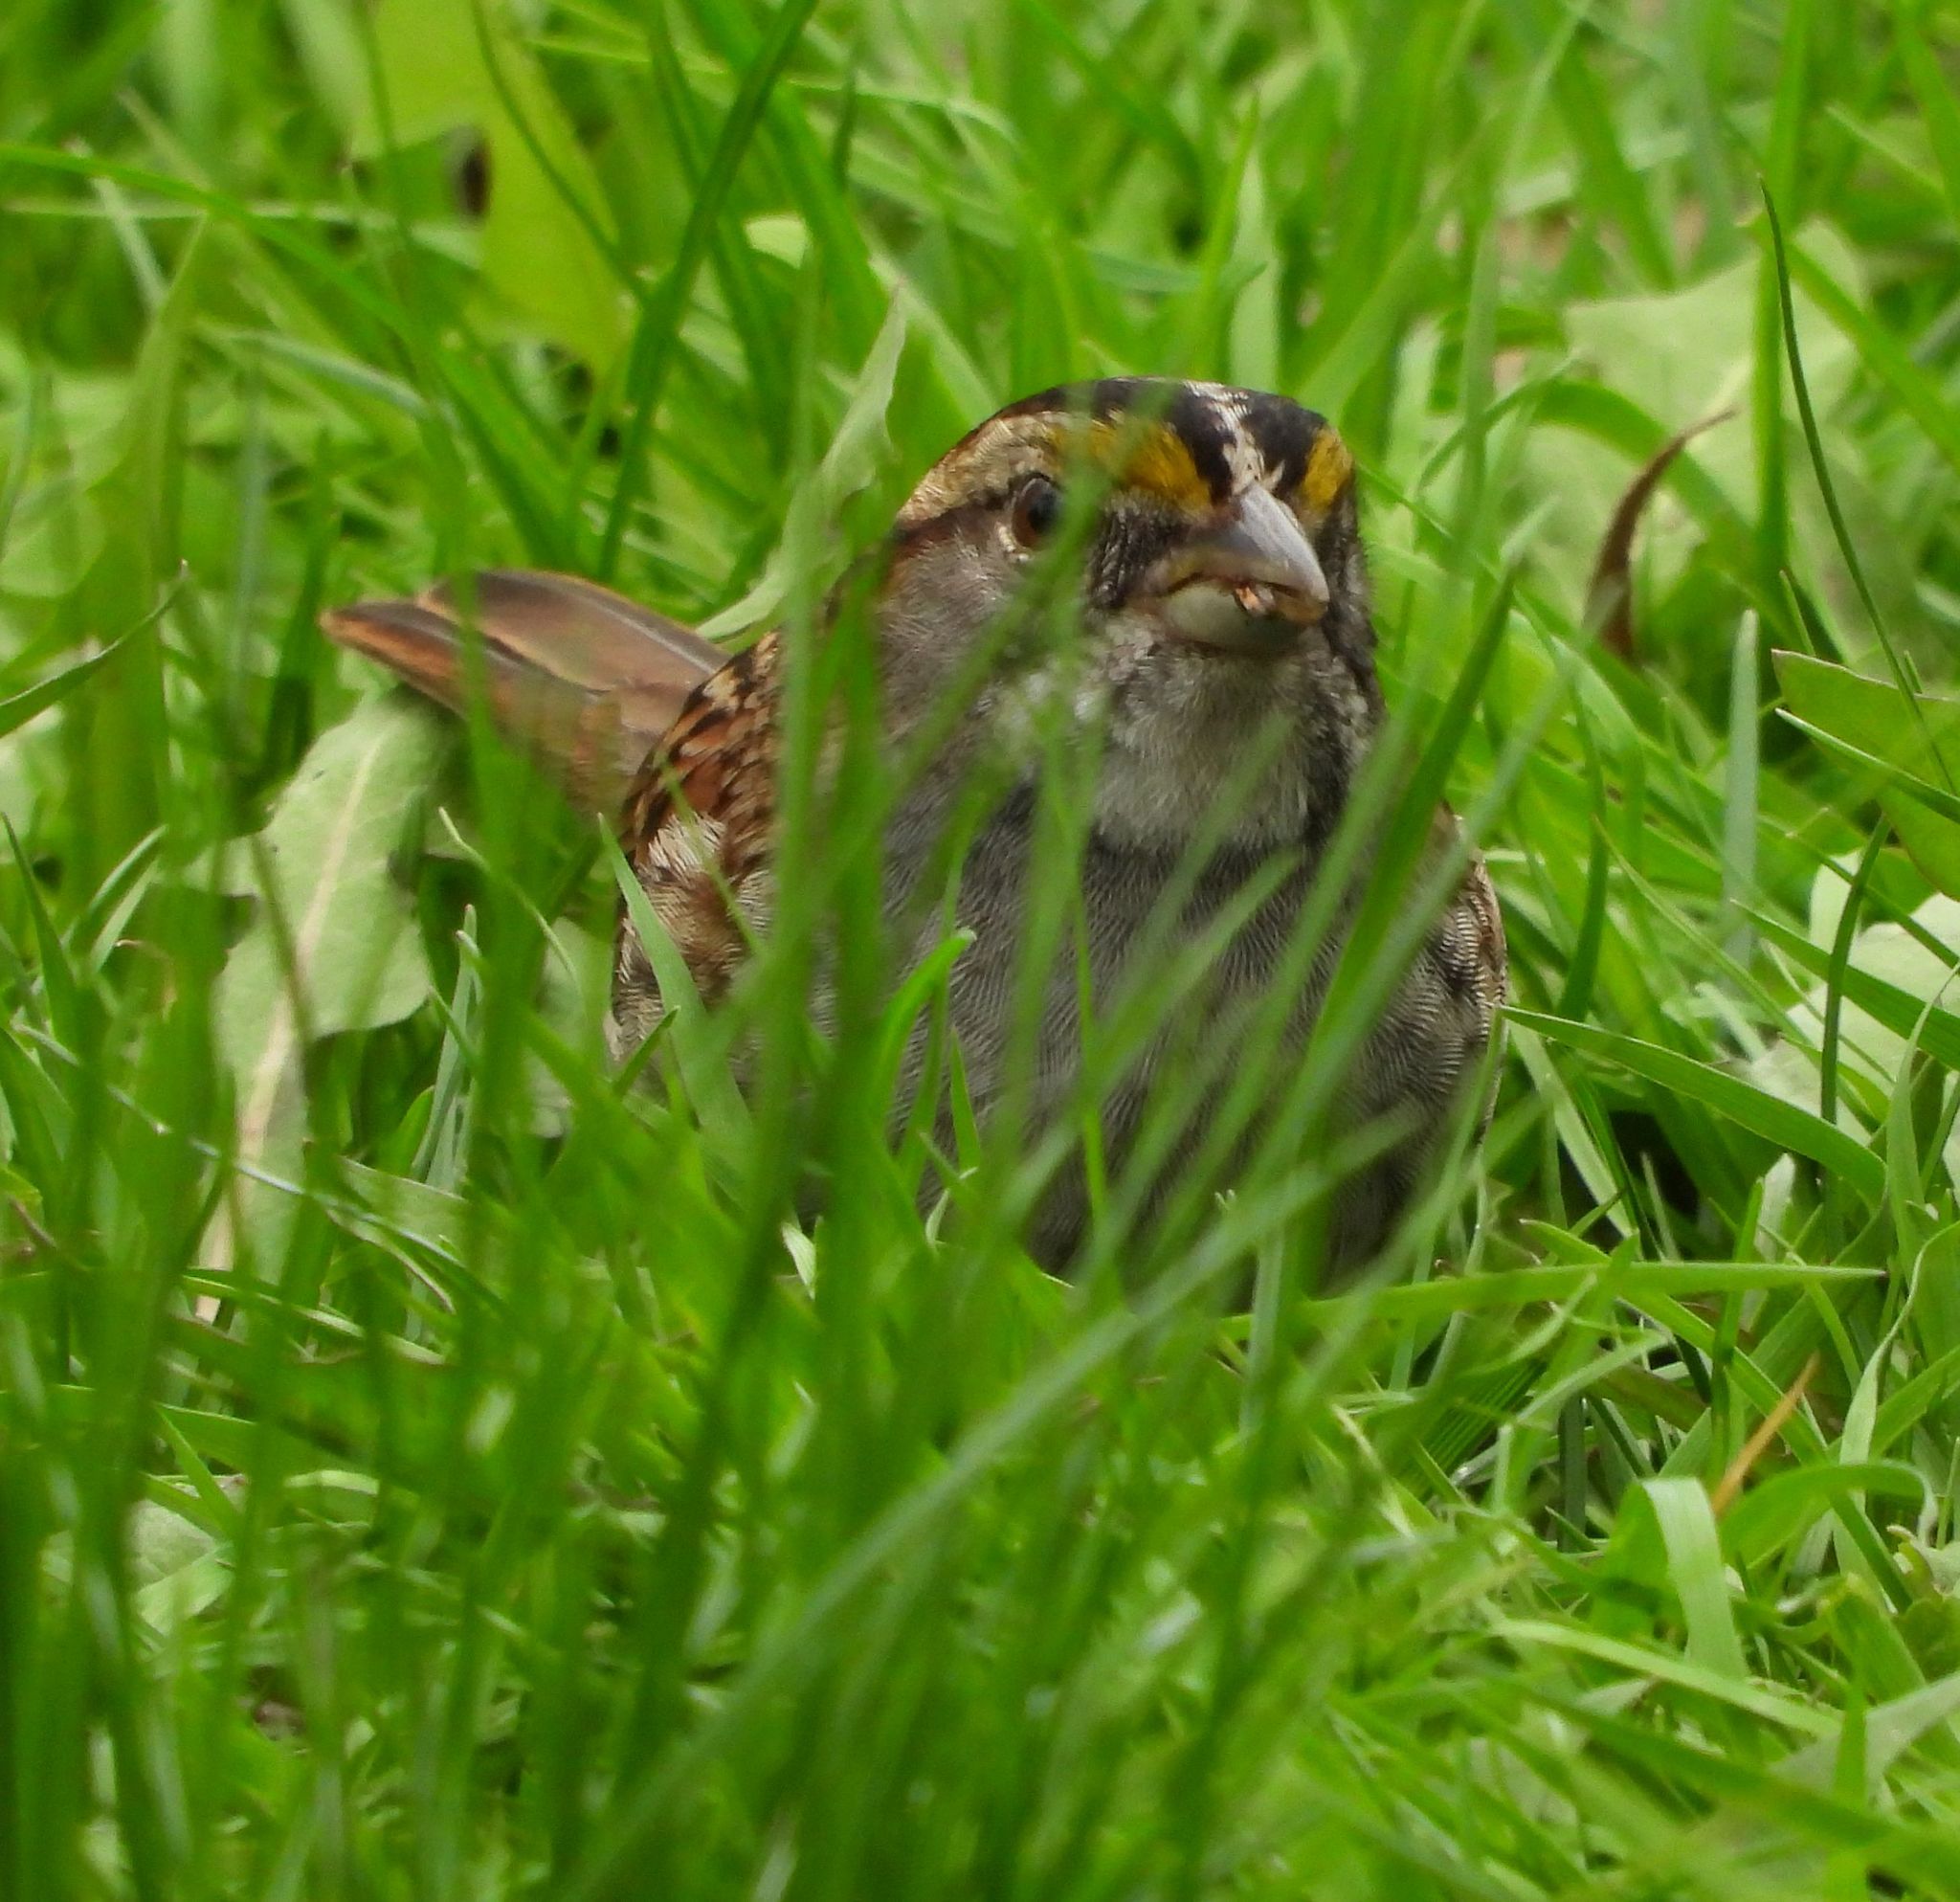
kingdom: Animalia
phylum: Chordata
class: Aves
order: Passeriformes
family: Passerellidae
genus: Zonotrichia
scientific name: Zonotrichia albicollis
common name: White-throated sparrow
